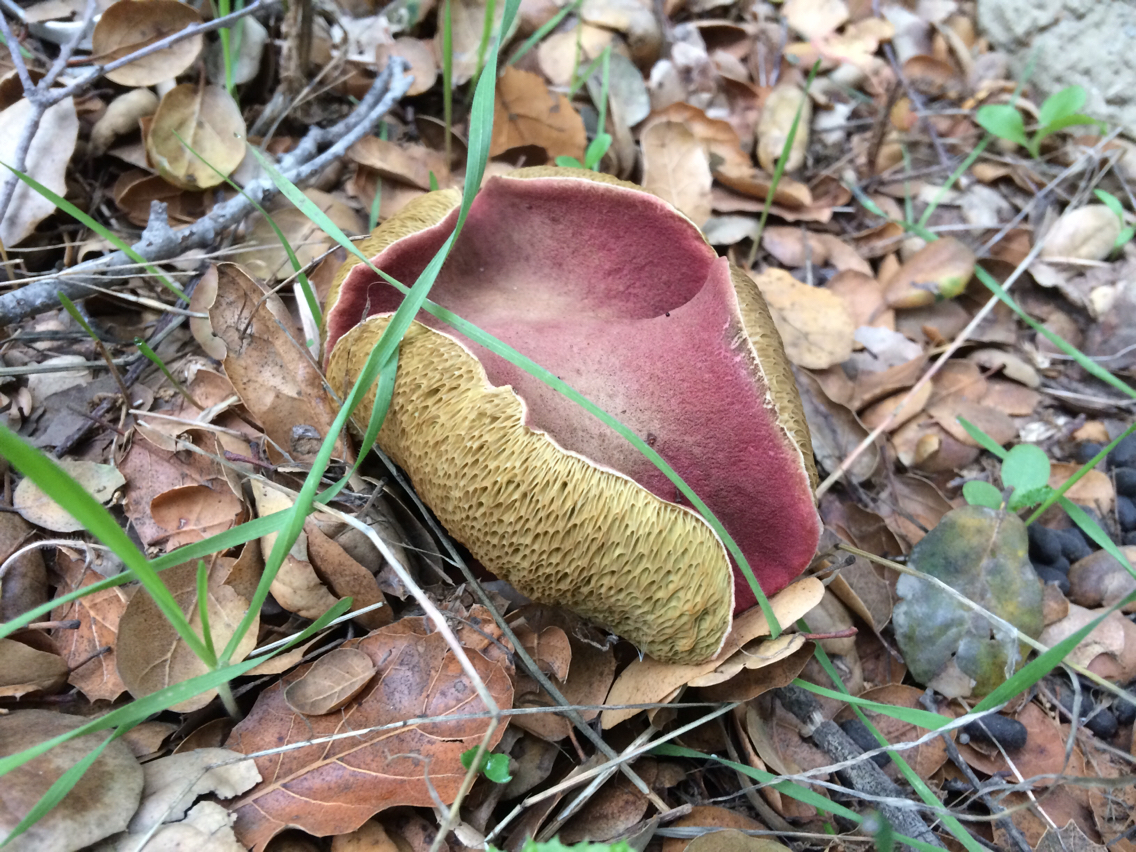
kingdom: Fungi
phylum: Basidiomycota
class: Agaricomycetes
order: Boletales
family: Boletaceae
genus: Xerocomellus
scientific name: Xerocomellus dryophilus
